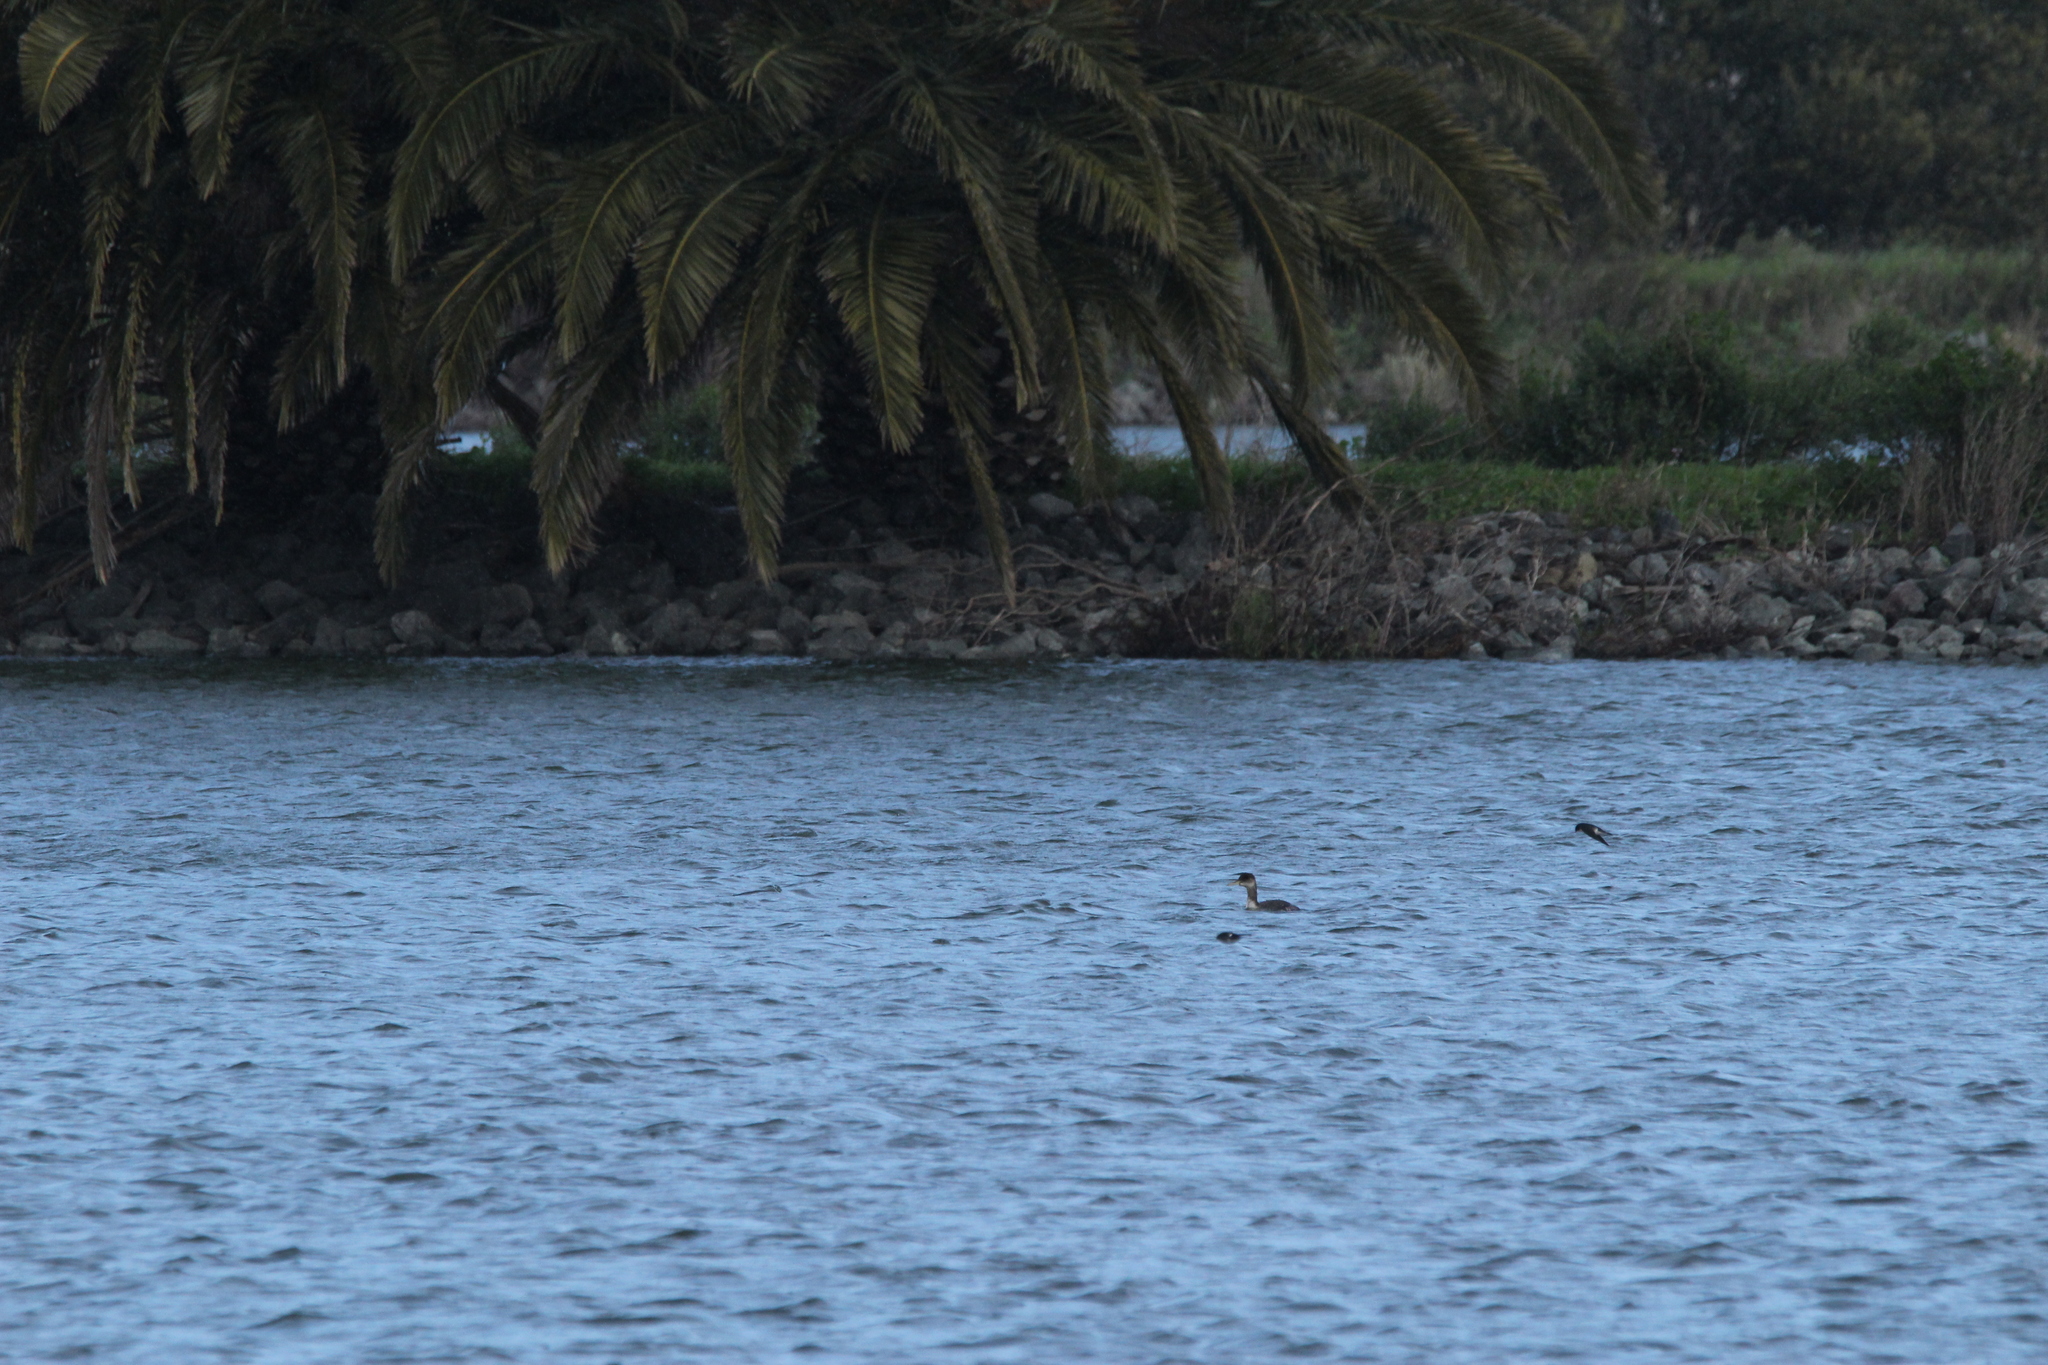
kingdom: Animalia
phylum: Chordata
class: Aves
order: Podicipediformes
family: Podicipedidae
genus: Podiceps
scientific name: Podiceps grisegena
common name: Red-necked grebe
